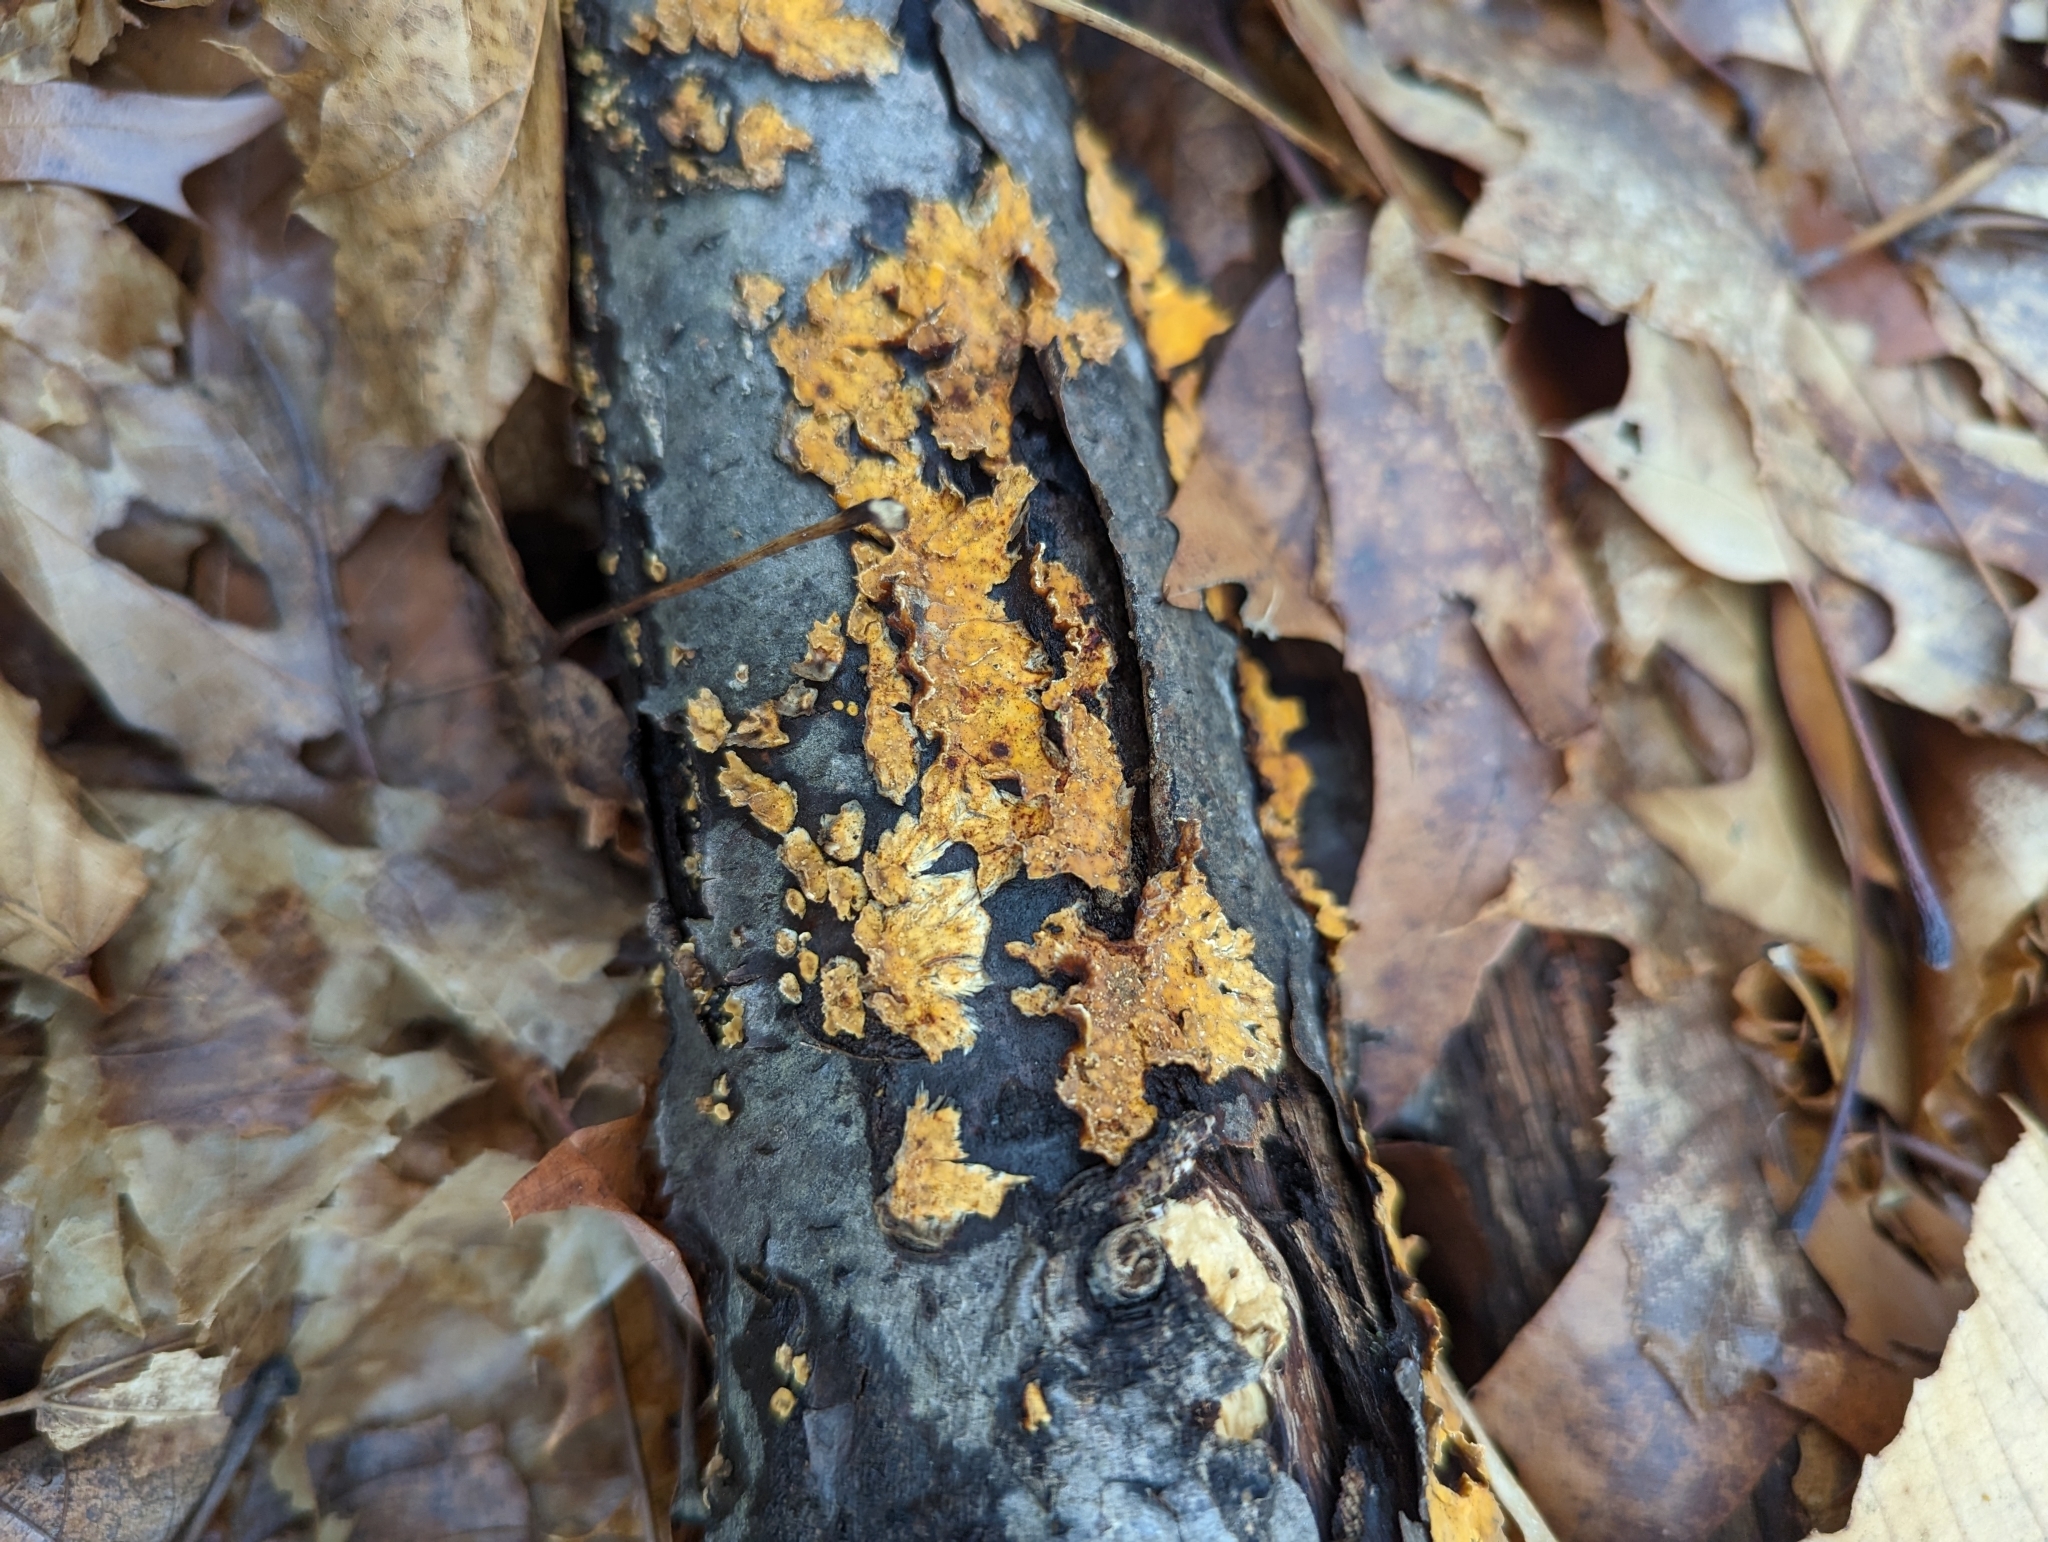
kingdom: Fungi
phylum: Basidiomycota
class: Agaricomycetes
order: Russulales
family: Stereaceae
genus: Stereum
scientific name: Stereum complicatum
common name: Crowded parchment
